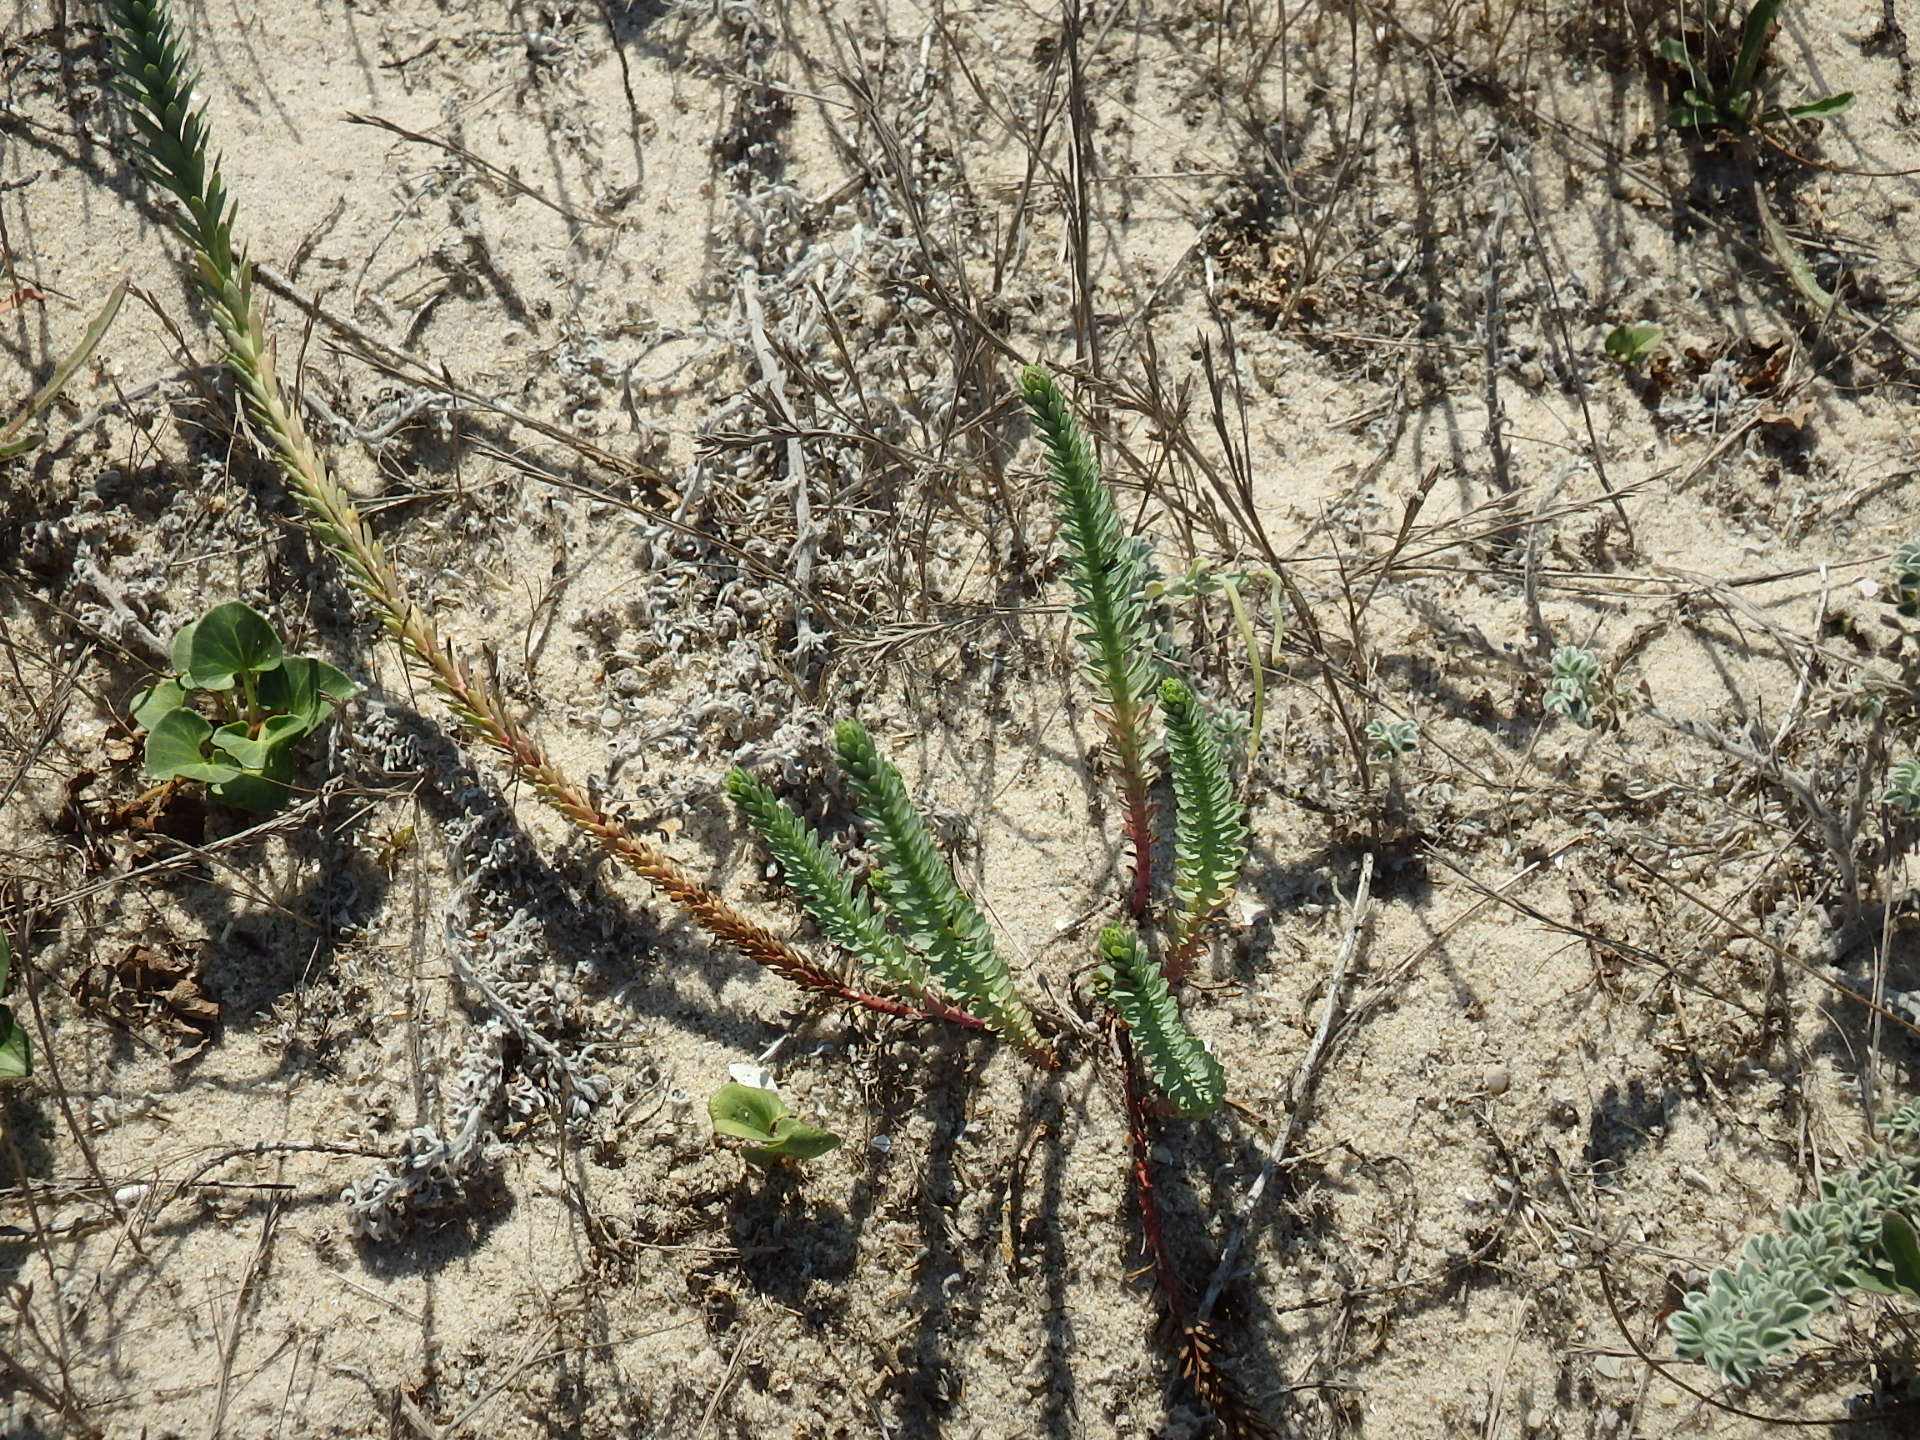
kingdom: Plantae
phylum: Tracheophyta
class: Magnoliopsida
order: Malpighiales
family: Euphorbiaceae
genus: Euphorbia
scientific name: Euphorbia paralias
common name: Sea spurge
